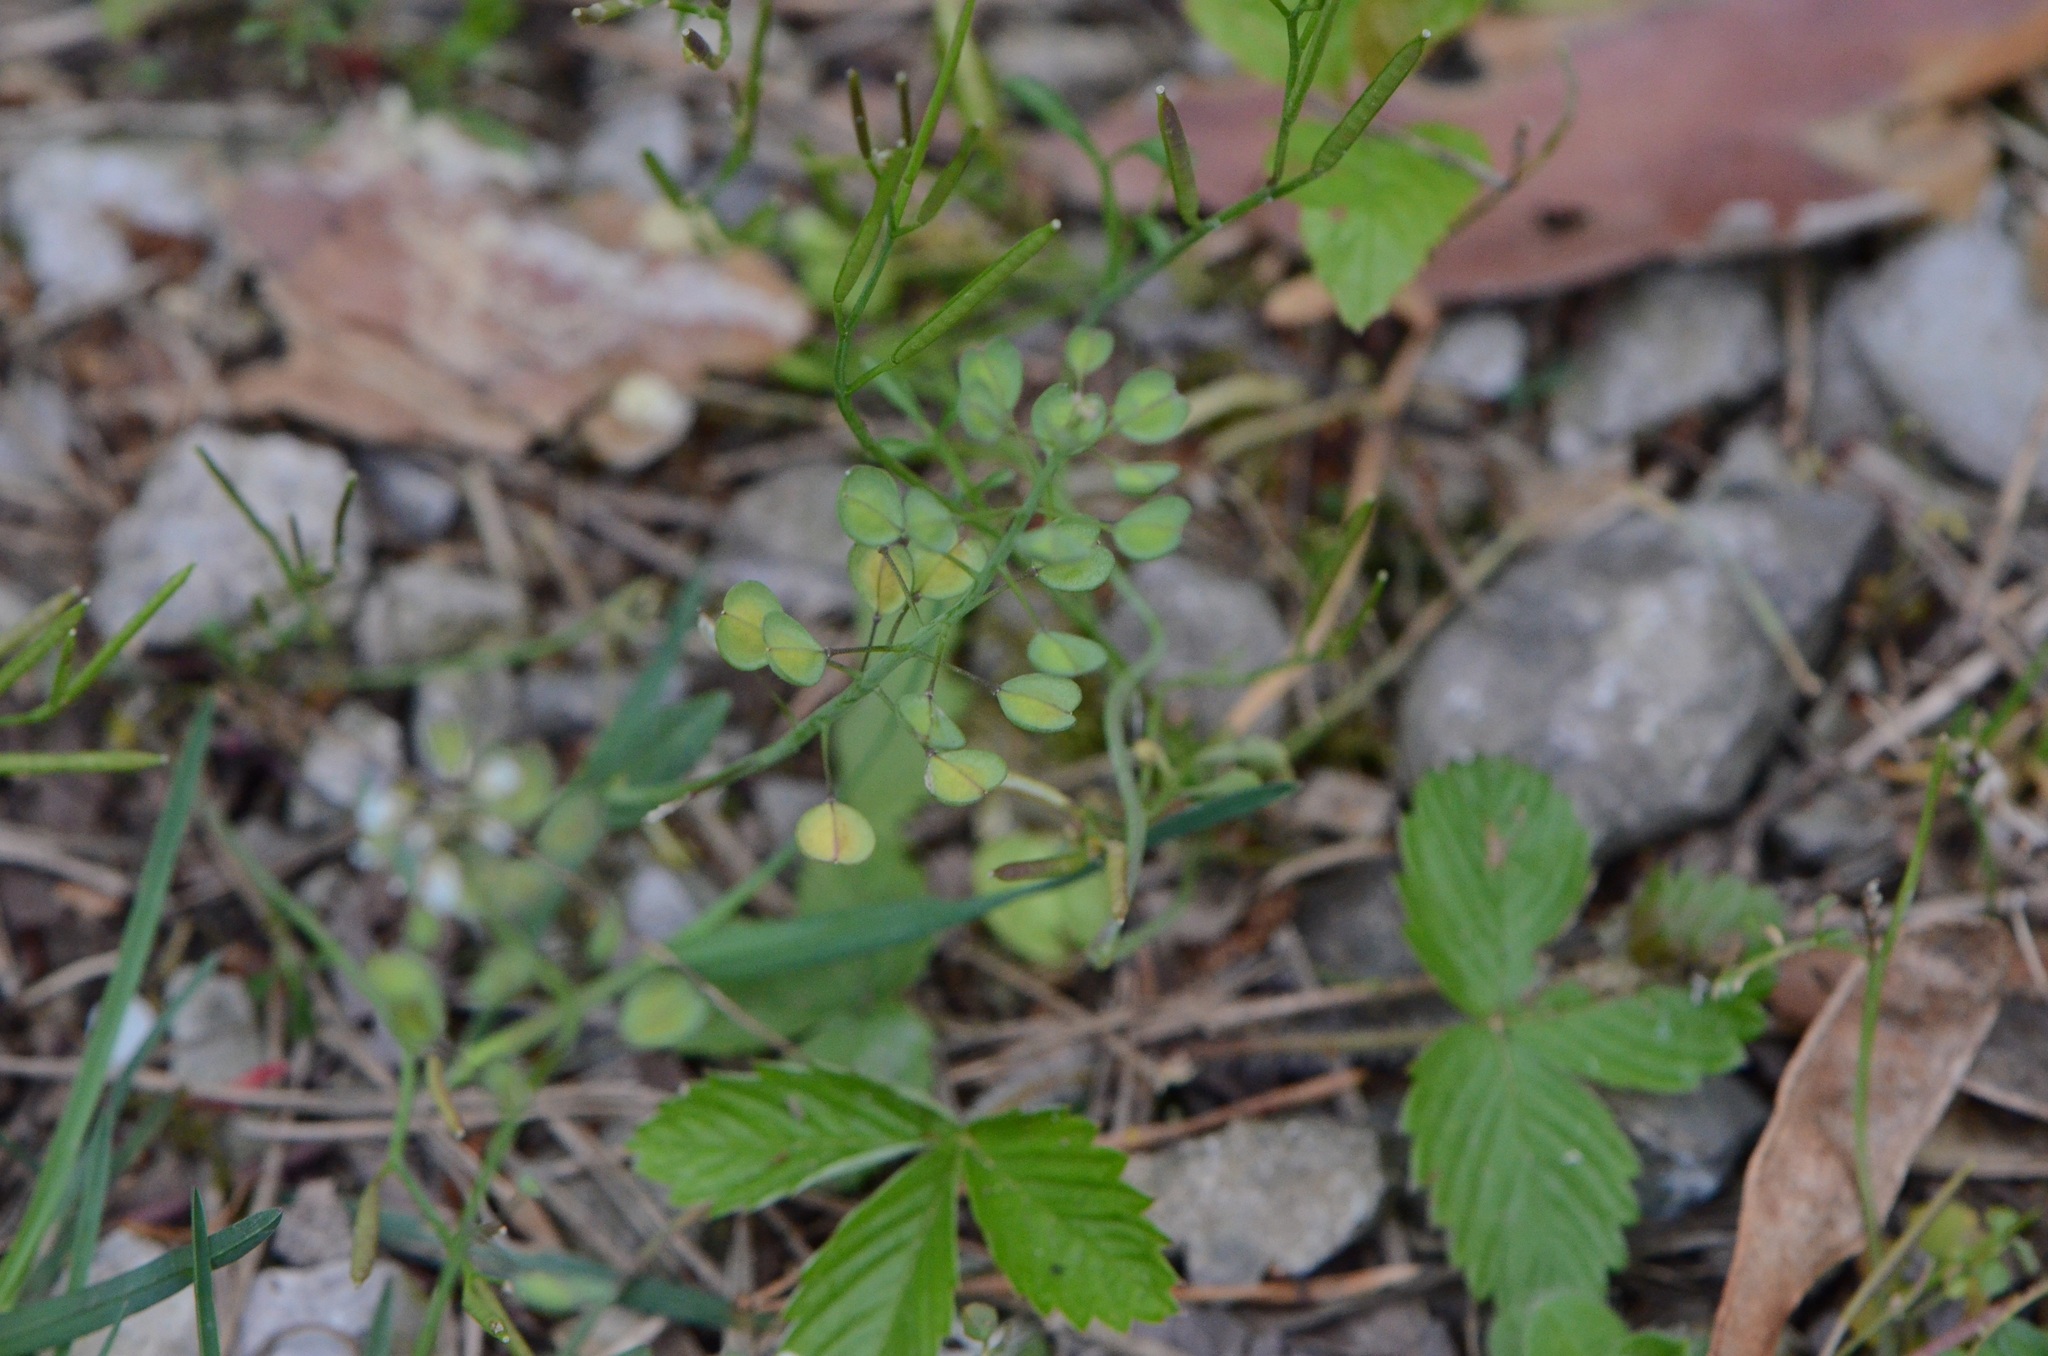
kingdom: Plantae
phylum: Tracheophyta
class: Magnoliopsida
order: Brassicales
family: Brassicaceae
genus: Noccaea
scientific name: Noccaea perfoliata
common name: Perfoliate pennycress
